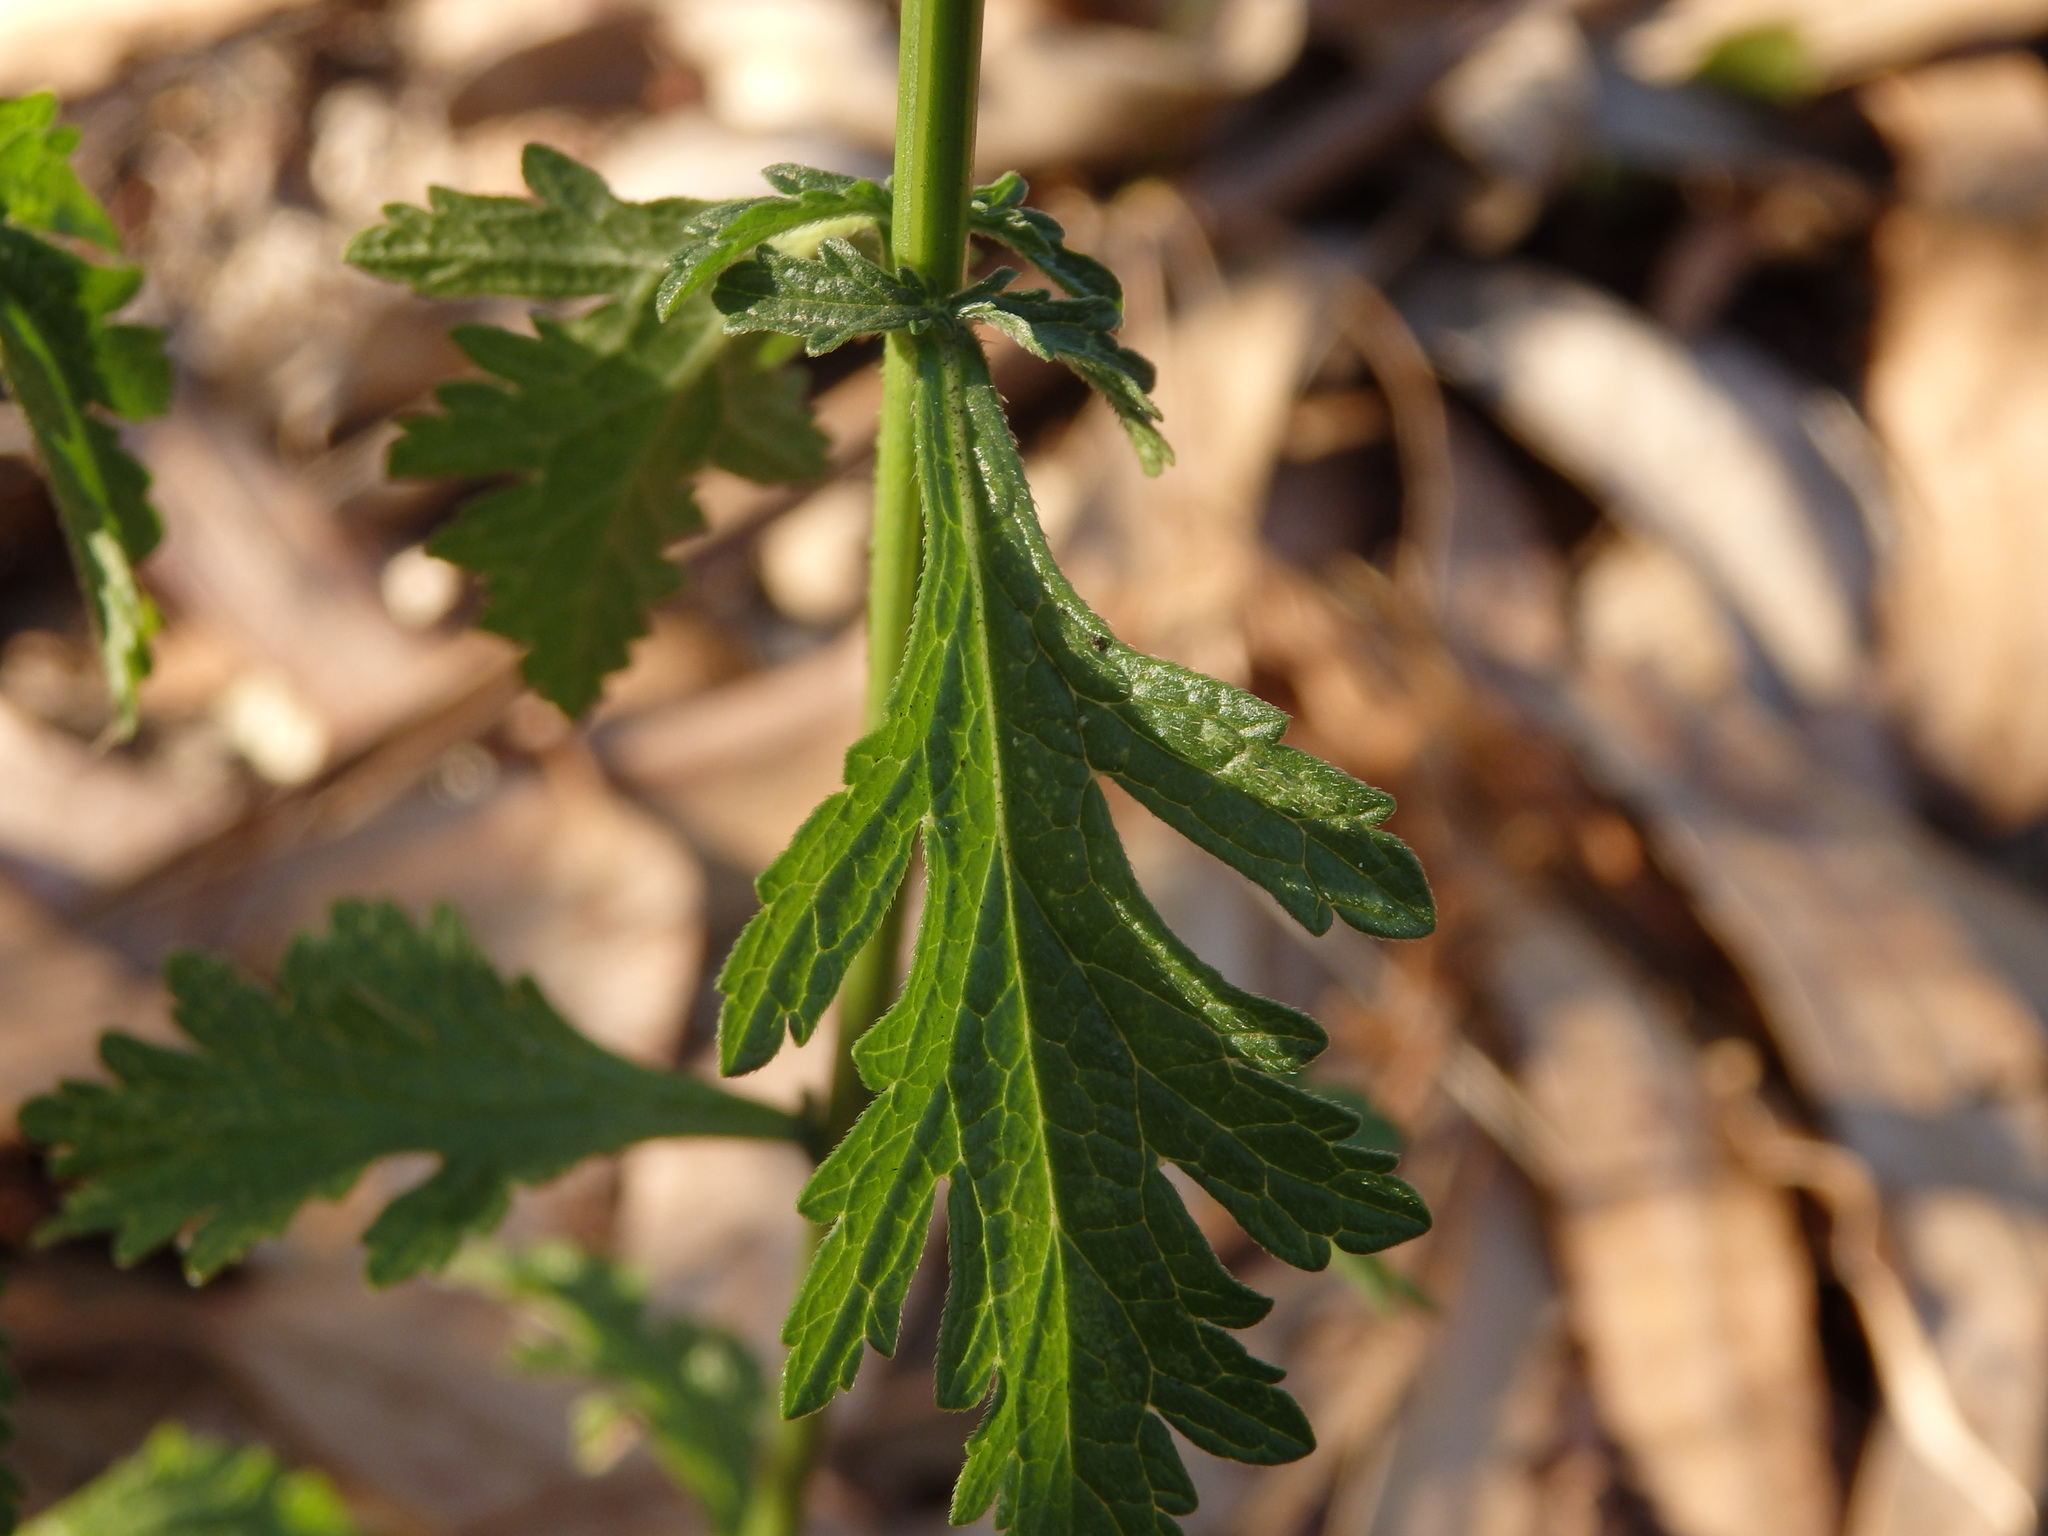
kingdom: Plantae
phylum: Tracheophyta
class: Magnoliopsida
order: Lamiales
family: Verbenaceae
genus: Verbena
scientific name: Verbena officinalis
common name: Vervain
